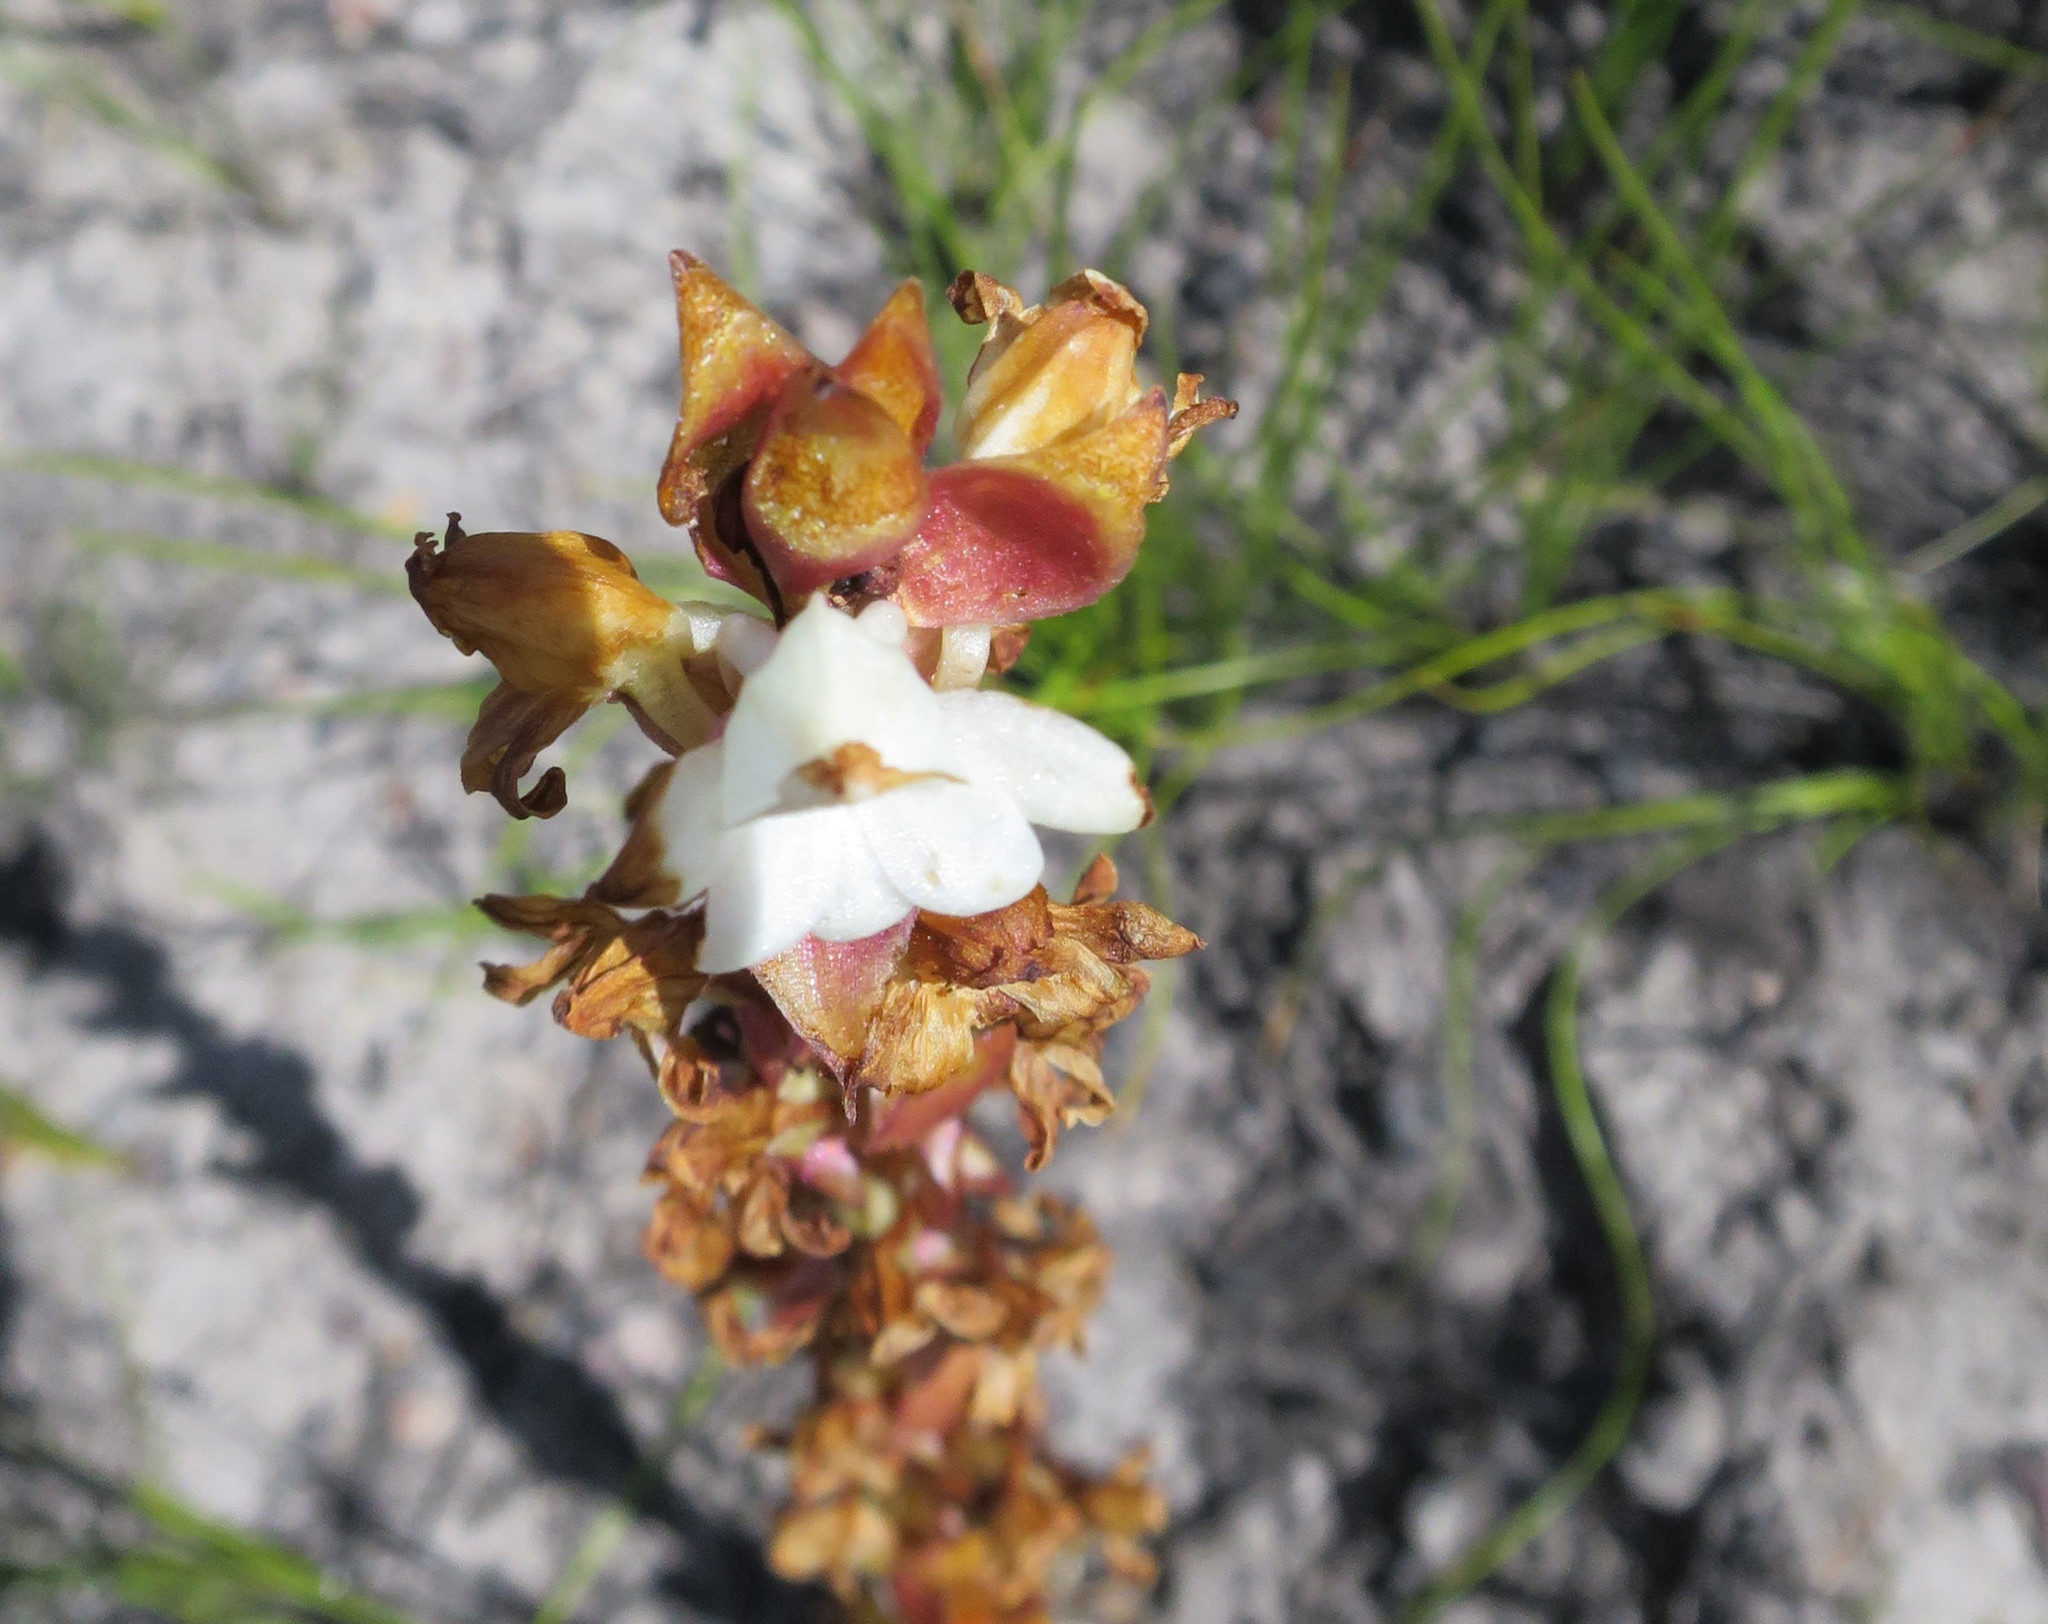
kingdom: Plantae
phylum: Tracheophyta
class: Liliopsida
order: Asparagales
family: Orchidaceae
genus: Satyrium
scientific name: Satyrium acuminatum
